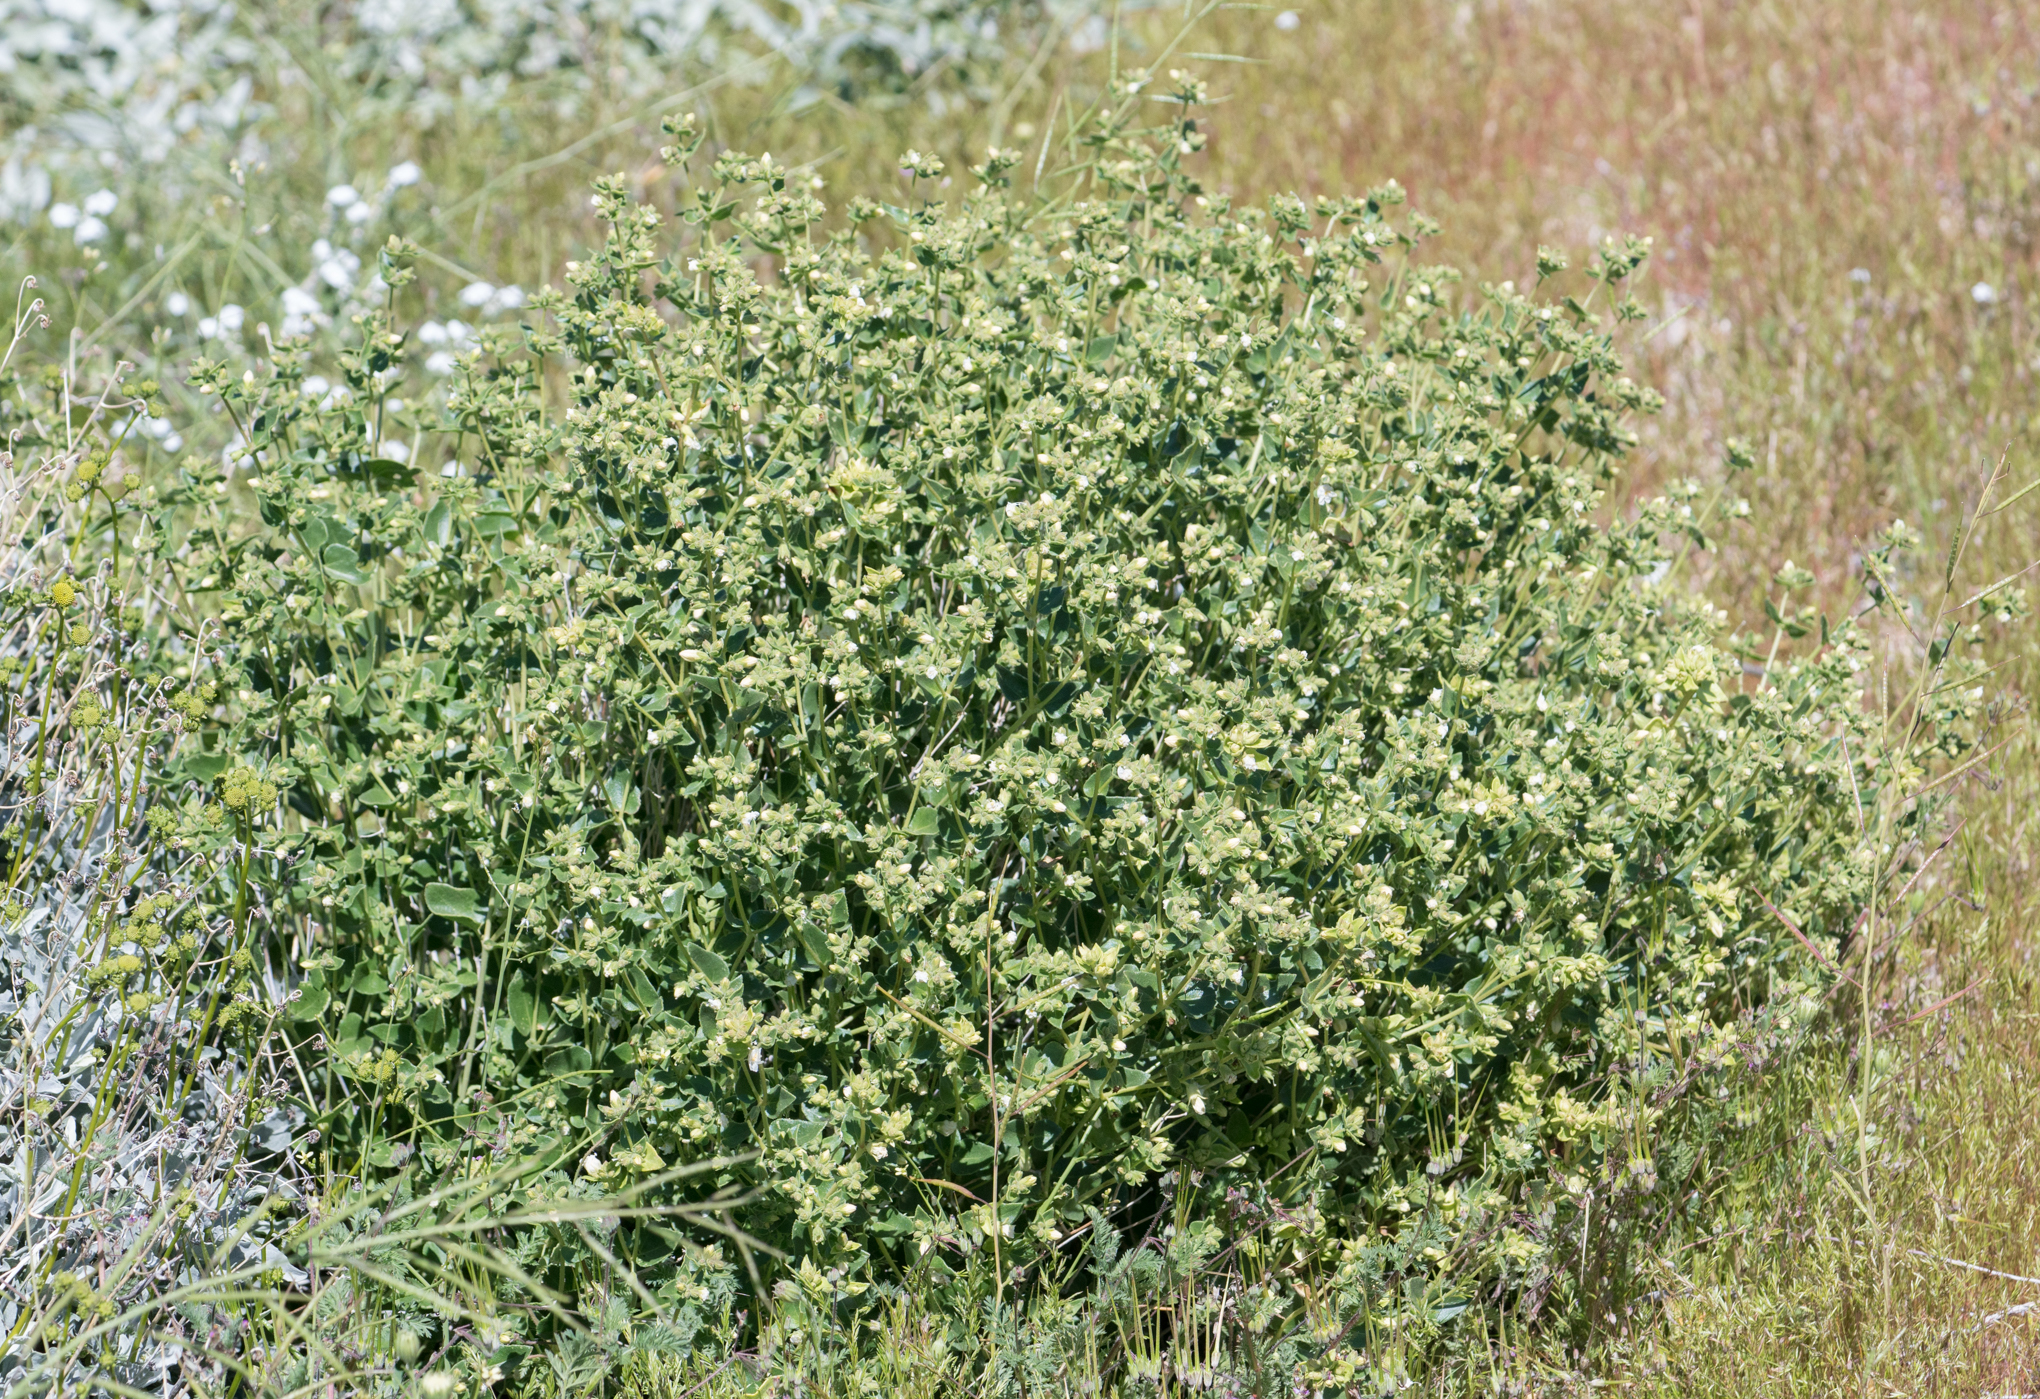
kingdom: Plantae
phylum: Tracheophyta
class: Magnoliopsida
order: Caryophyllales
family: Nyctaginaceae
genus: Mirabilis
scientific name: Mirabilis laevis
